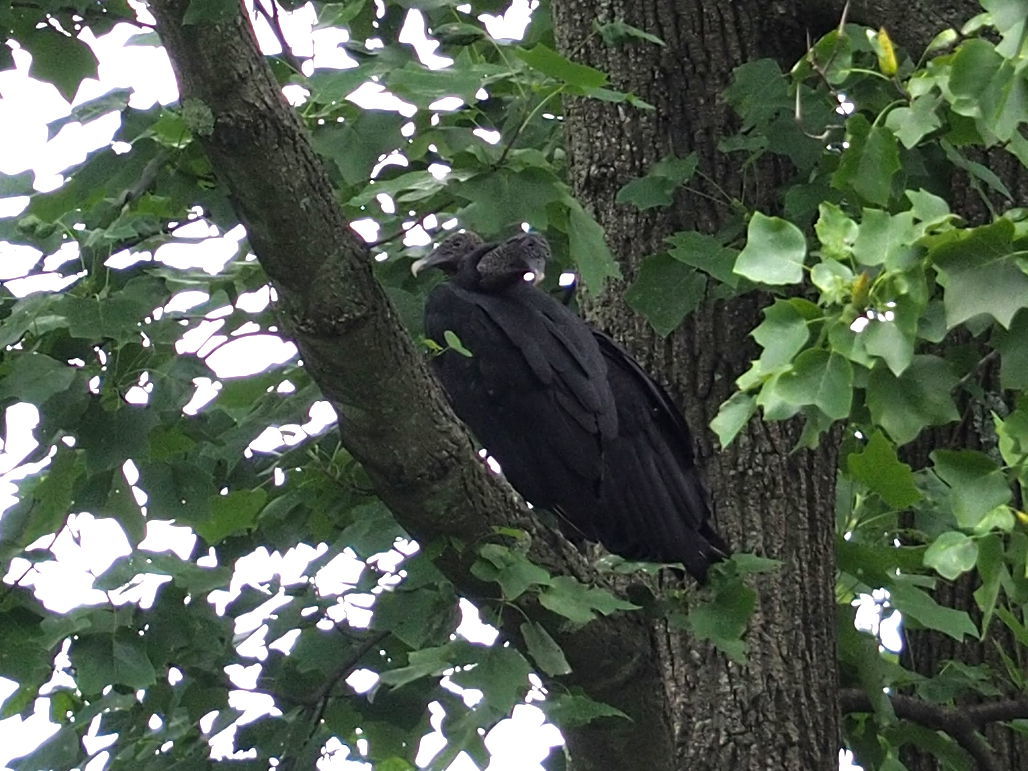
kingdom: Animalia
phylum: Chordata
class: Aves
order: Accipitriformes
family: Cathartidae
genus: Coragyps
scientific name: Coragyps atratus
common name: Black vulture
